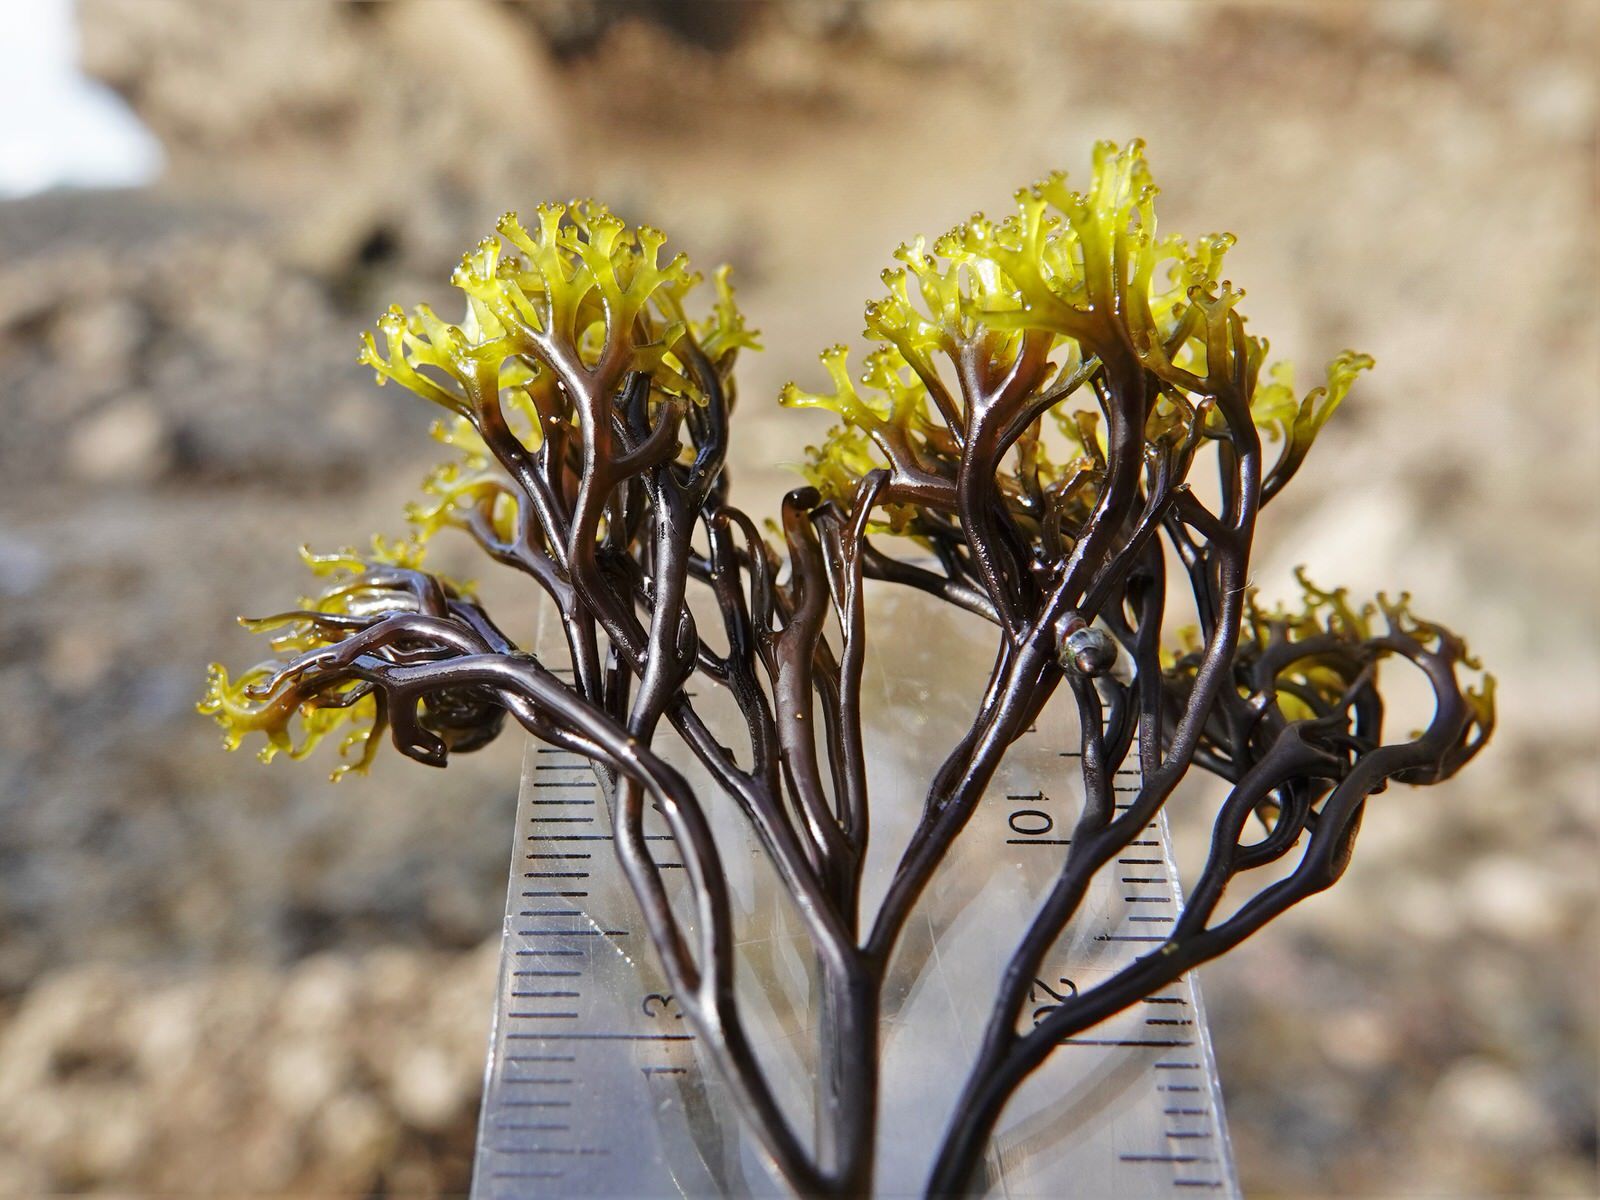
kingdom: Plantae
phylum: Rhodophyta
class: Florideophyceae
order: Gigartinales
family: Gigartinaceae
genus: Psilophycus
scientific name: Psilophycus alveatus
